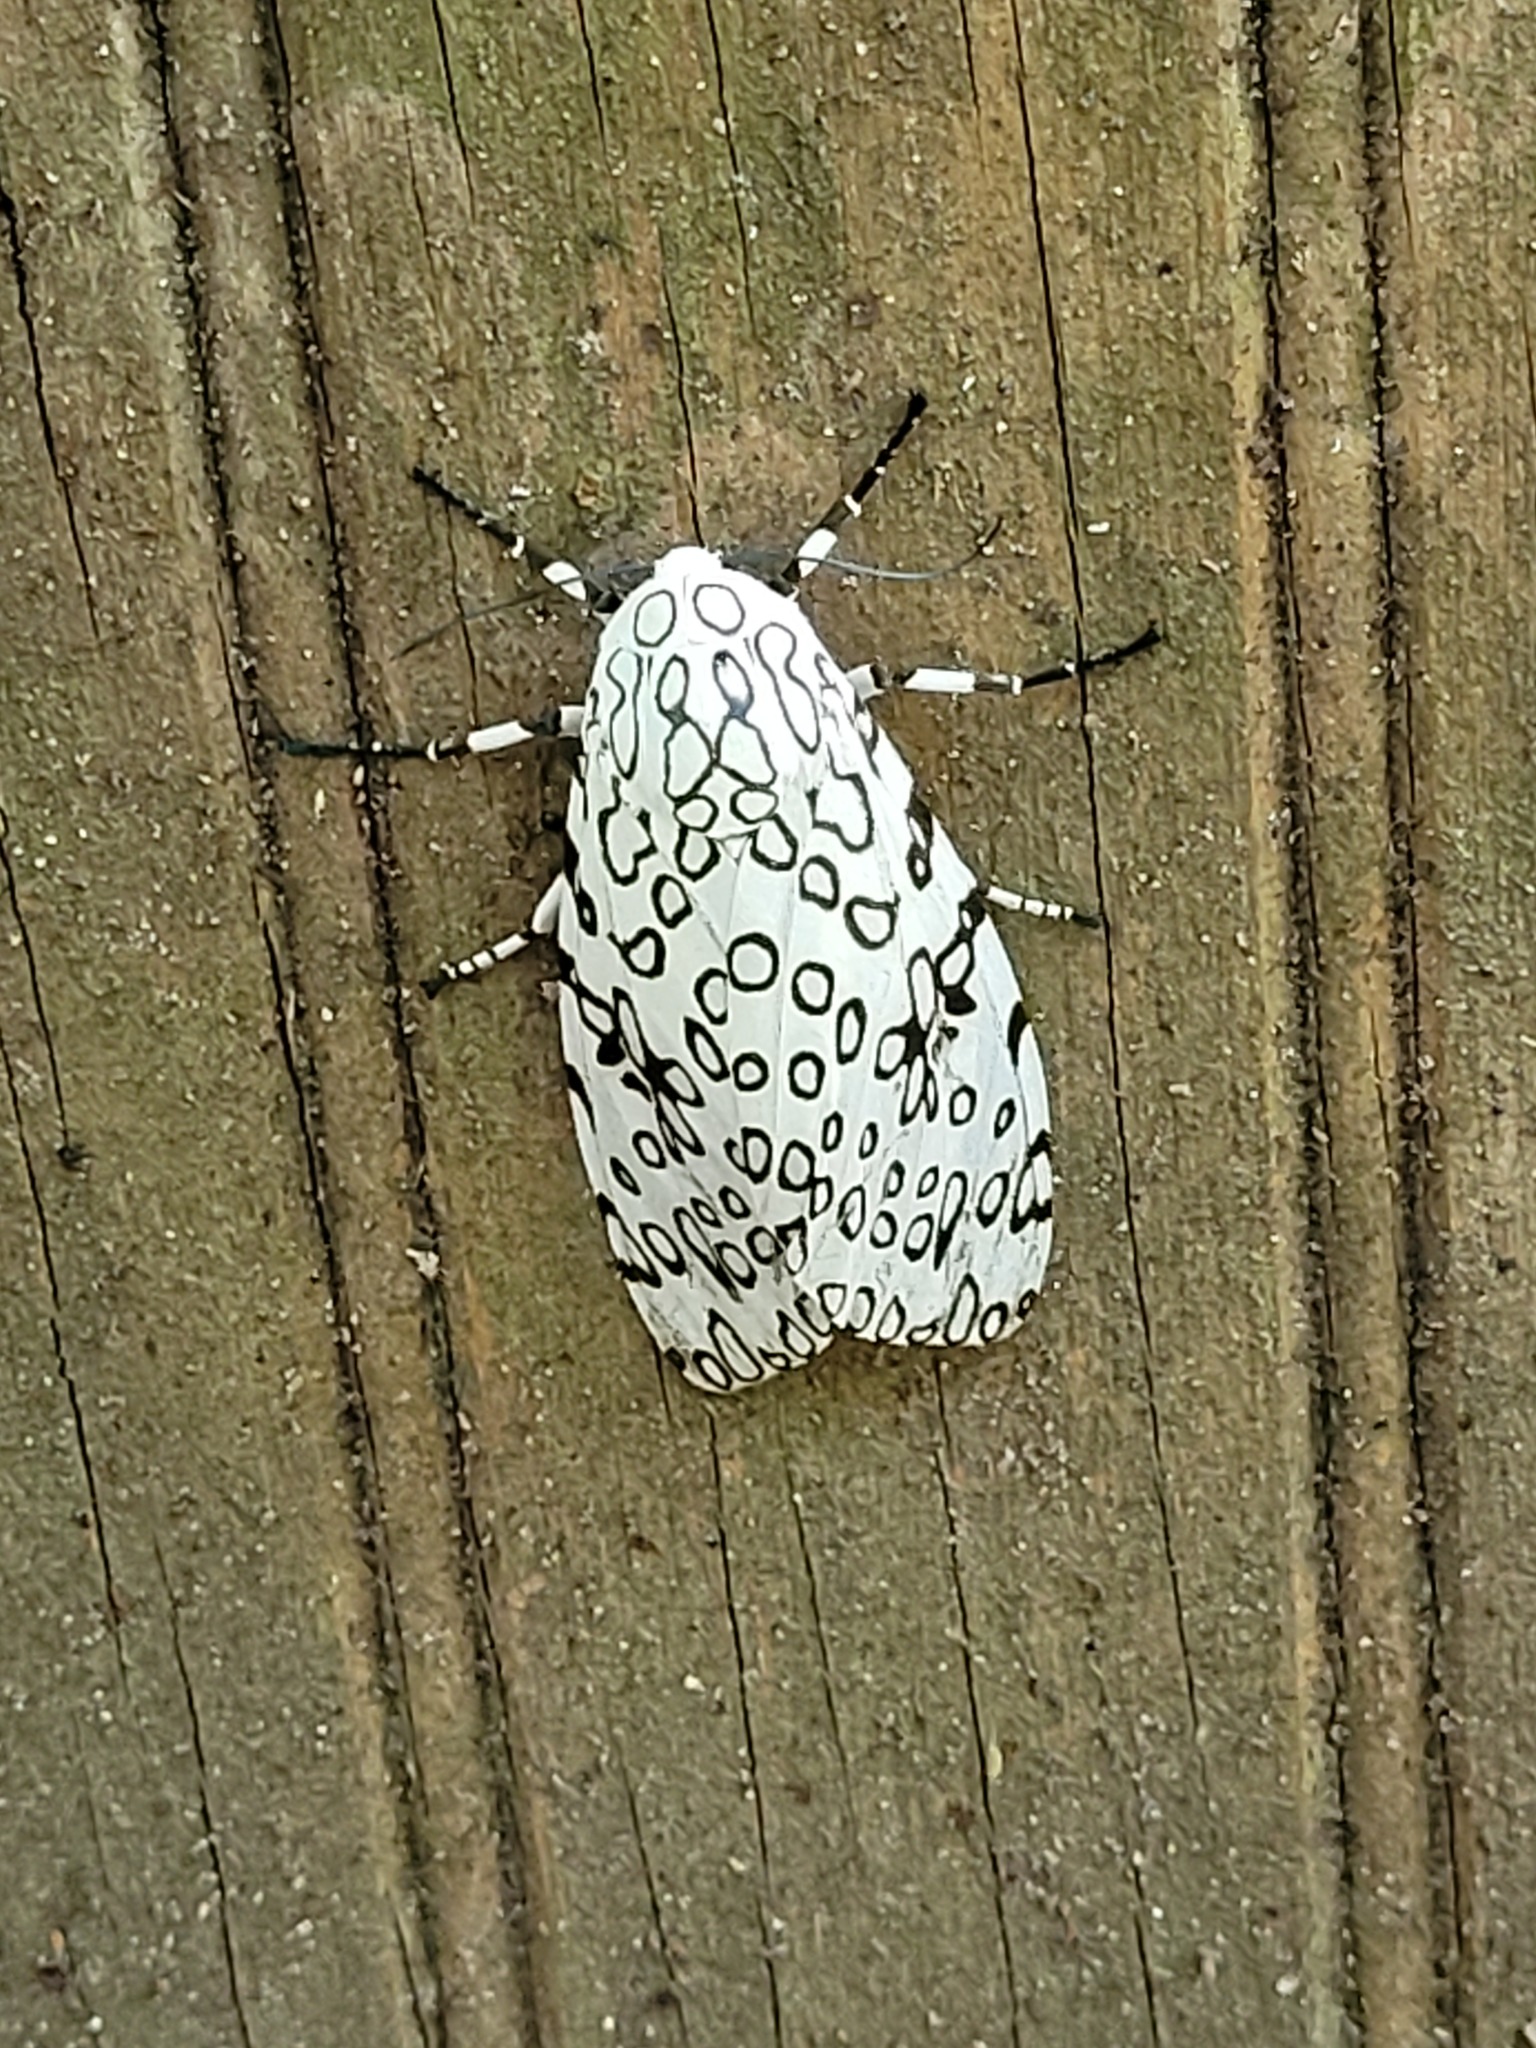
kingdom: Animalia
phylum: Arthropoda
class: Insecta
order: Lepidoptera
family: Erebidae
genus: Hypercompe
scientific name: Hypercompe scribonia
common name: Giant leopard moth
